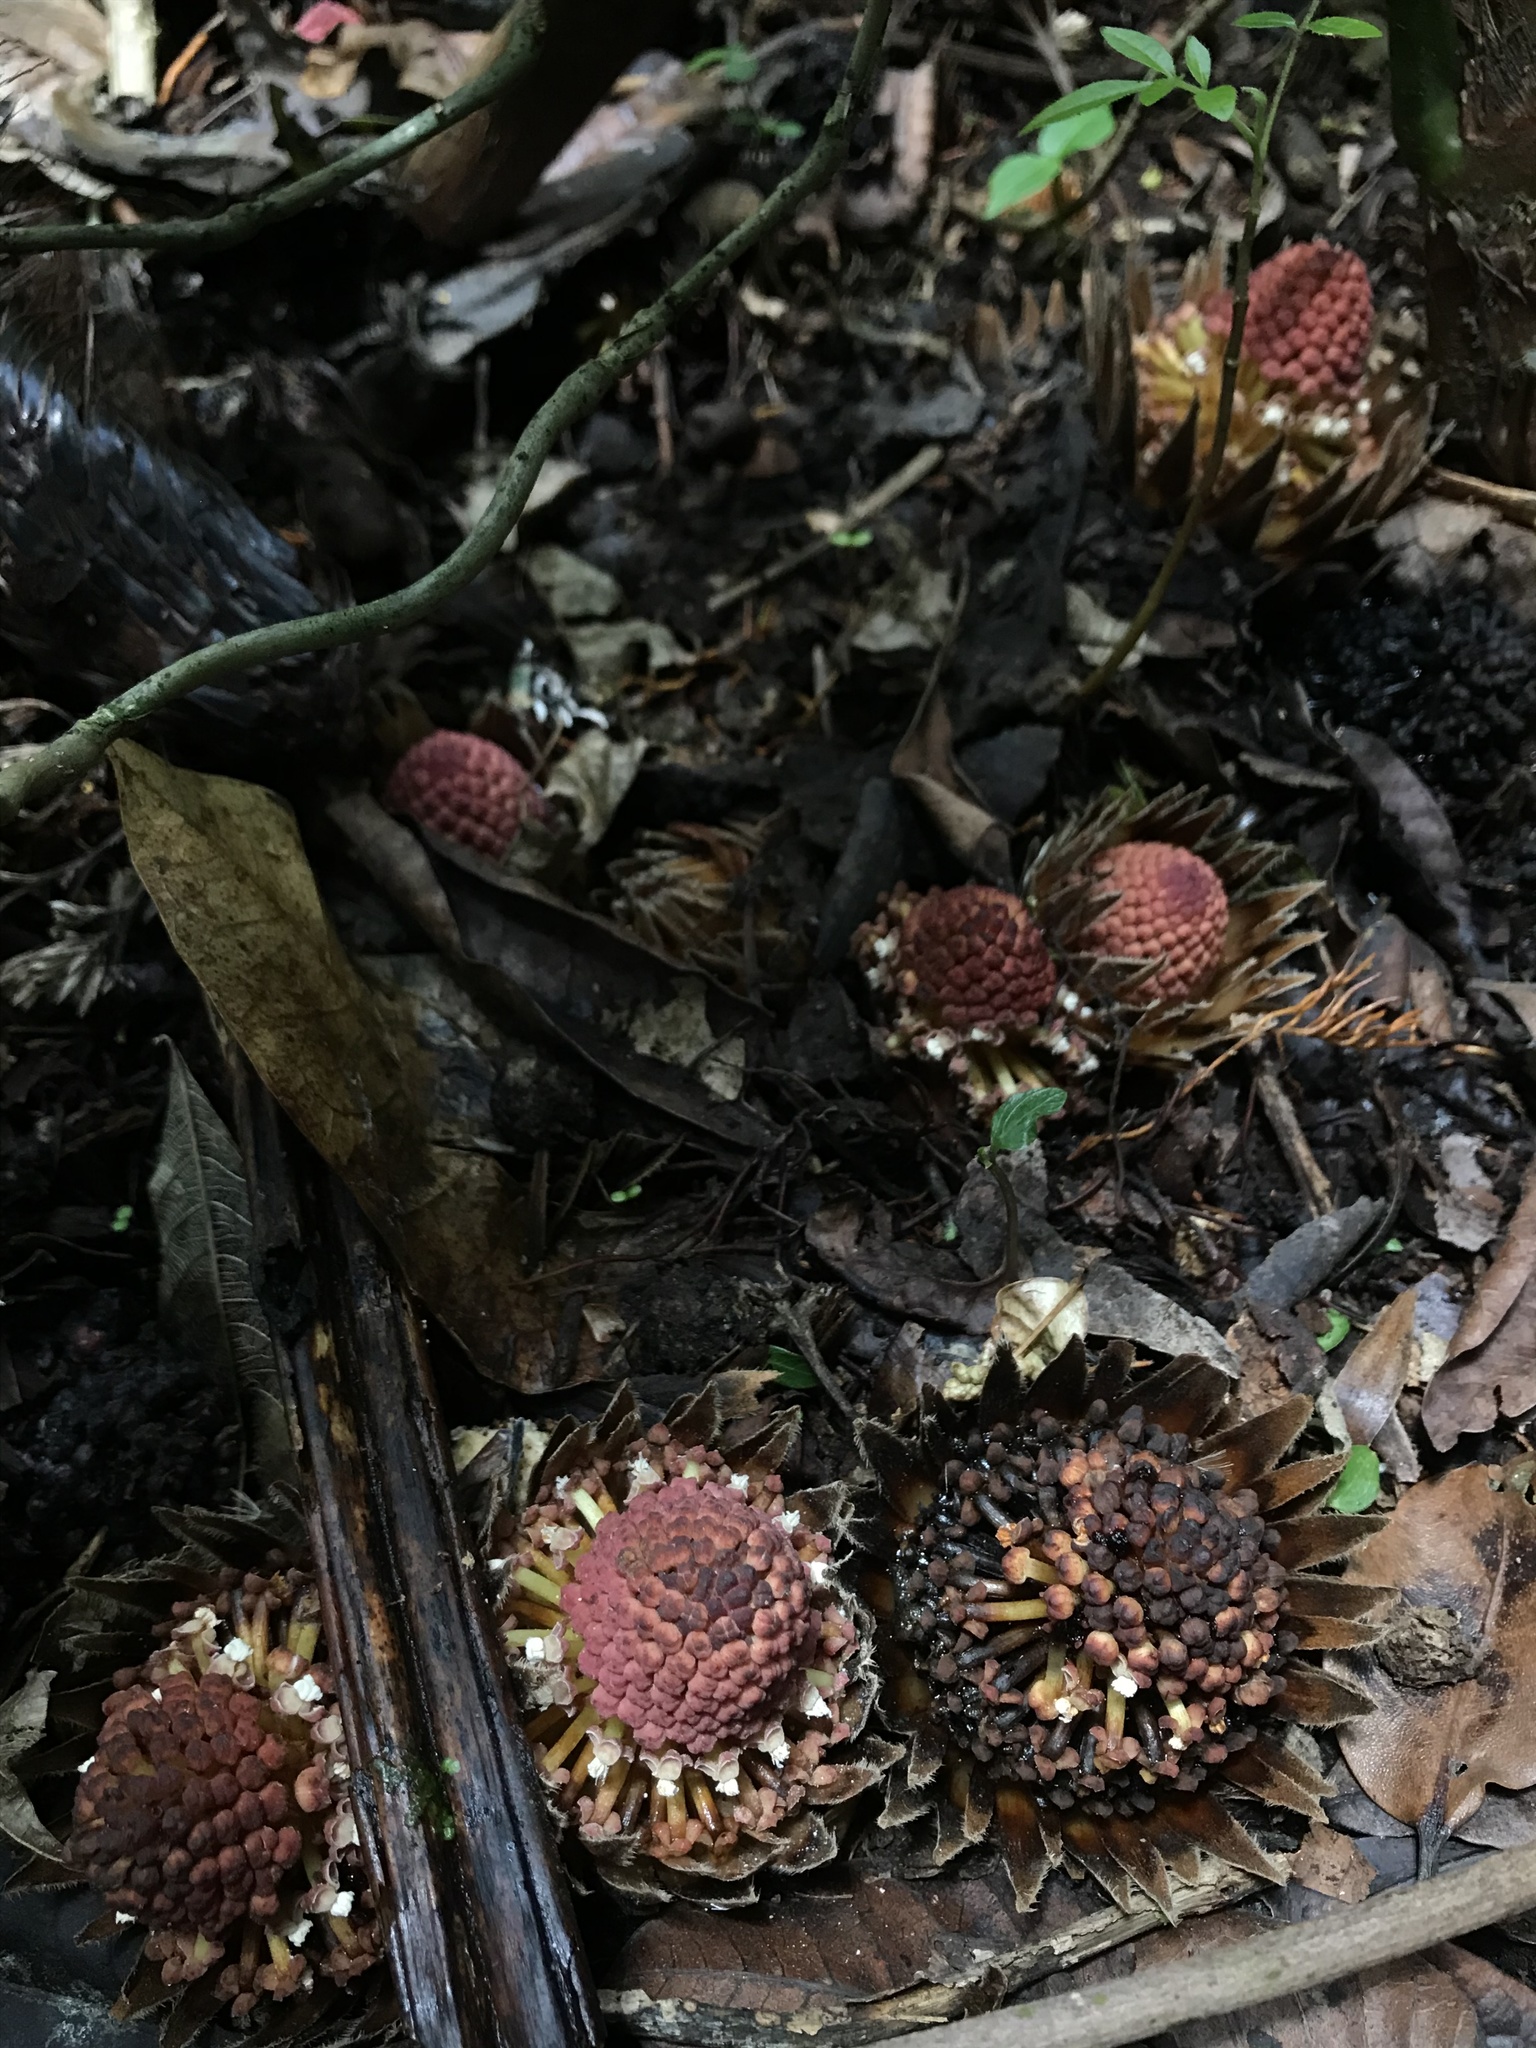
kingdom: Plantae
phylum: Tracheophyta
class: Magnoliopsida
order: Santalales
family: Balanophoraceae
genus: Langsdorffia
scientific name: Langsdorffia hypogaea
